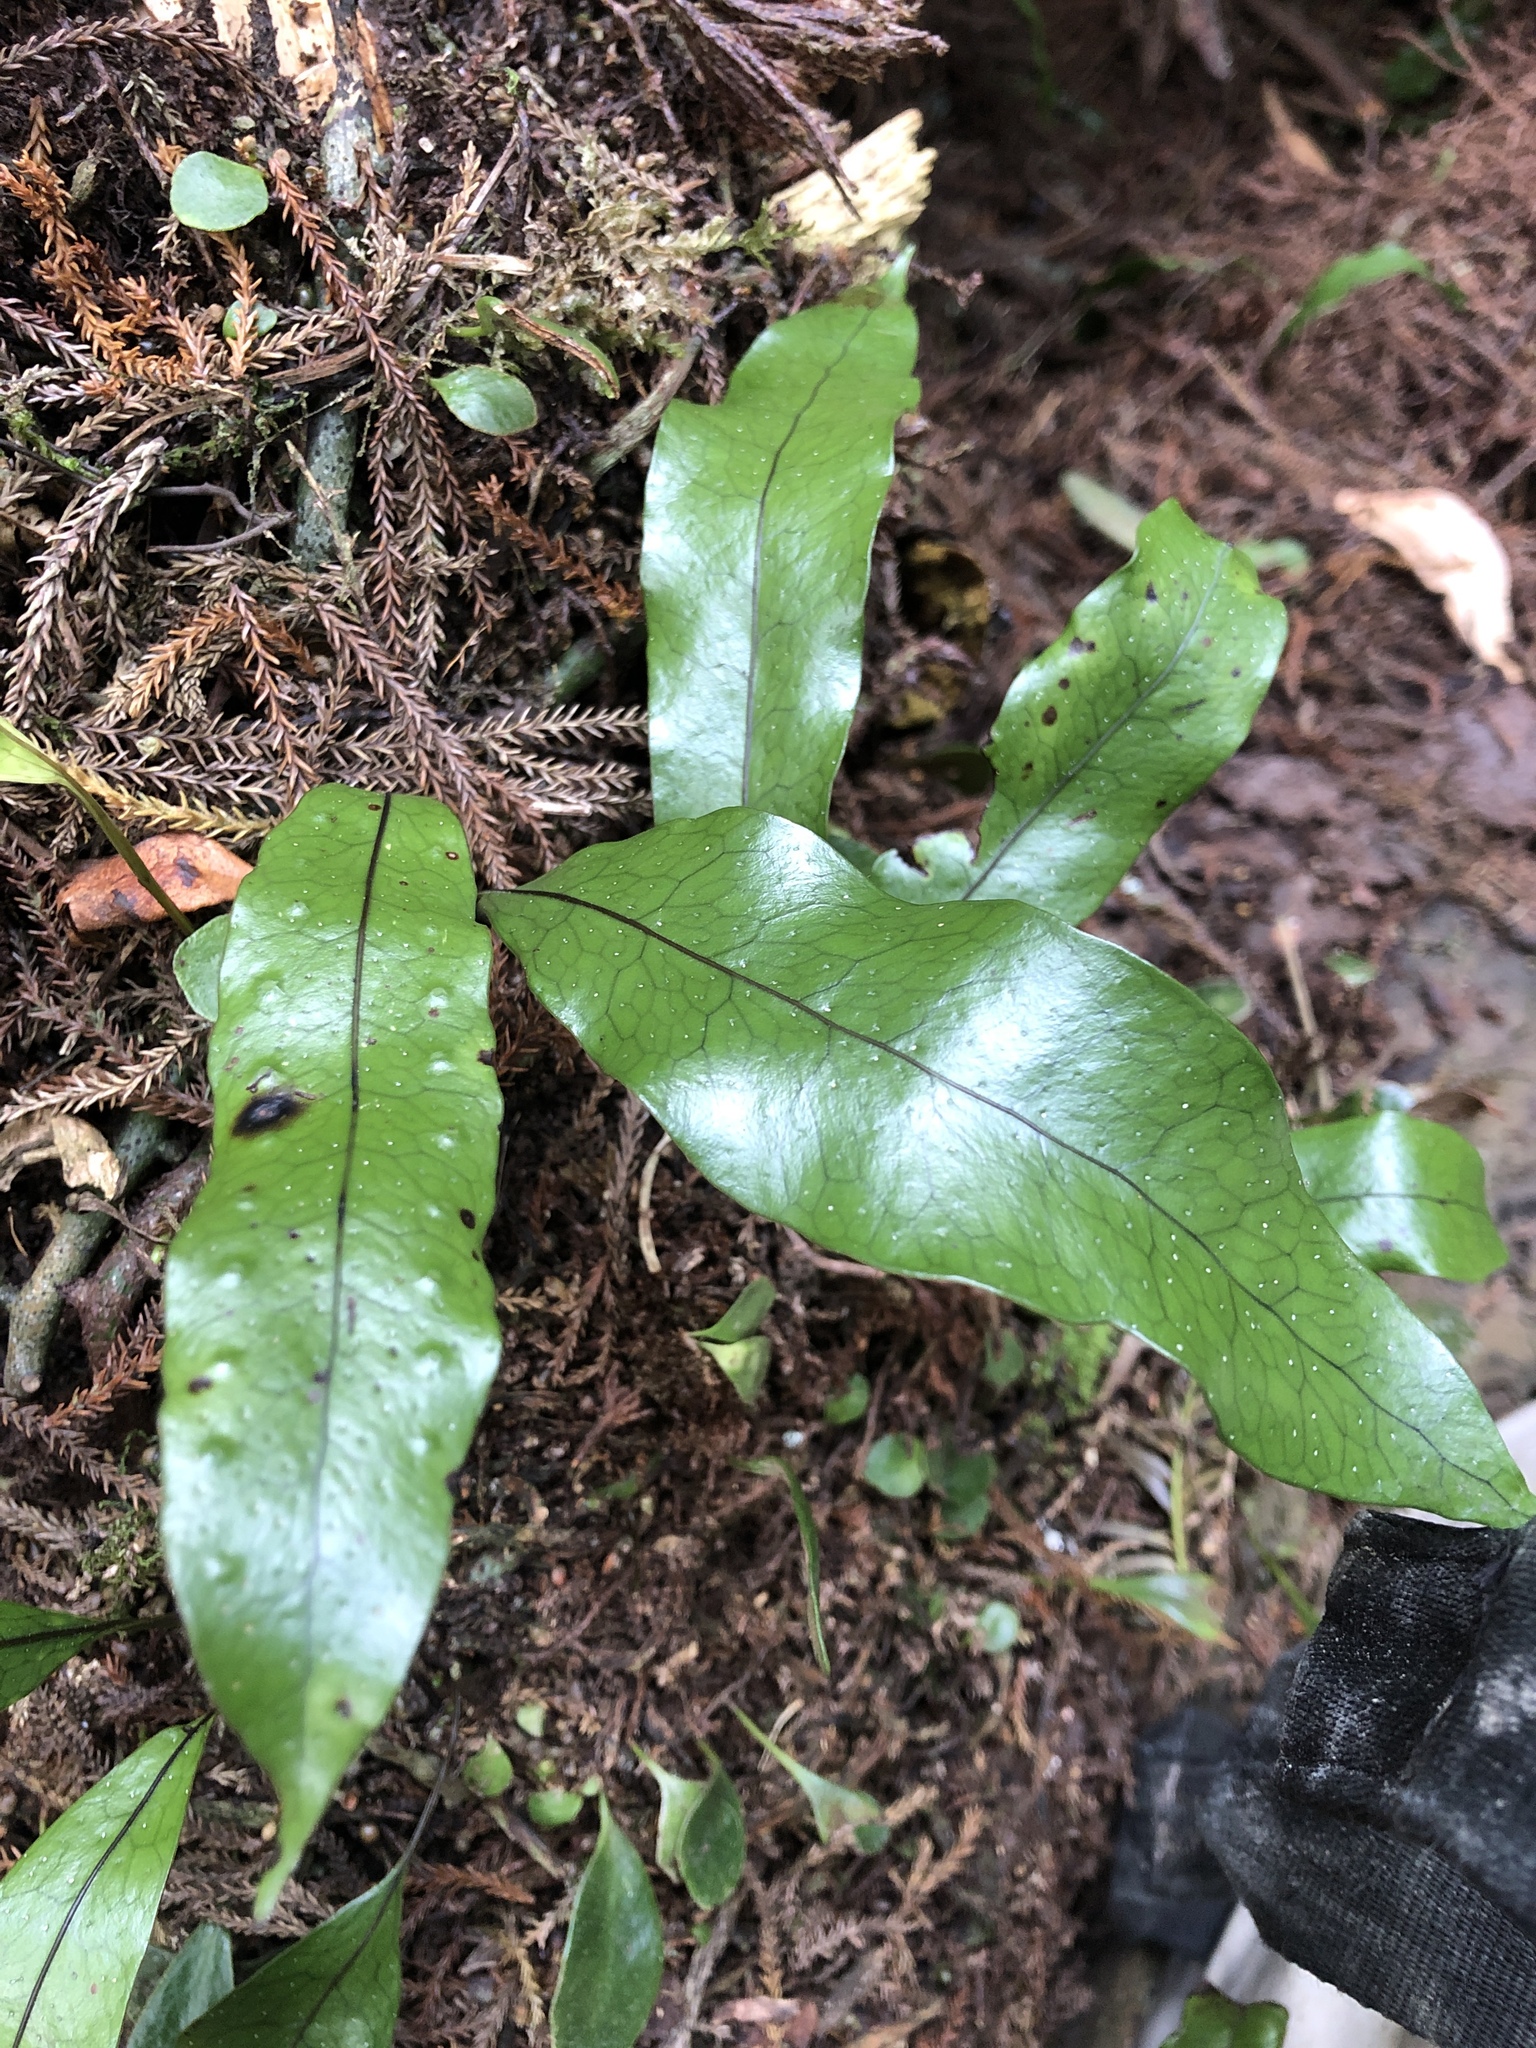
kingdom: Plantae
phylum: Tracheophyta
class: Polypodiopsida
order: Polypodiales
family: Polypodiaceae
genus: Lecanopteris
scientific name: Lecanopteris pustulata
